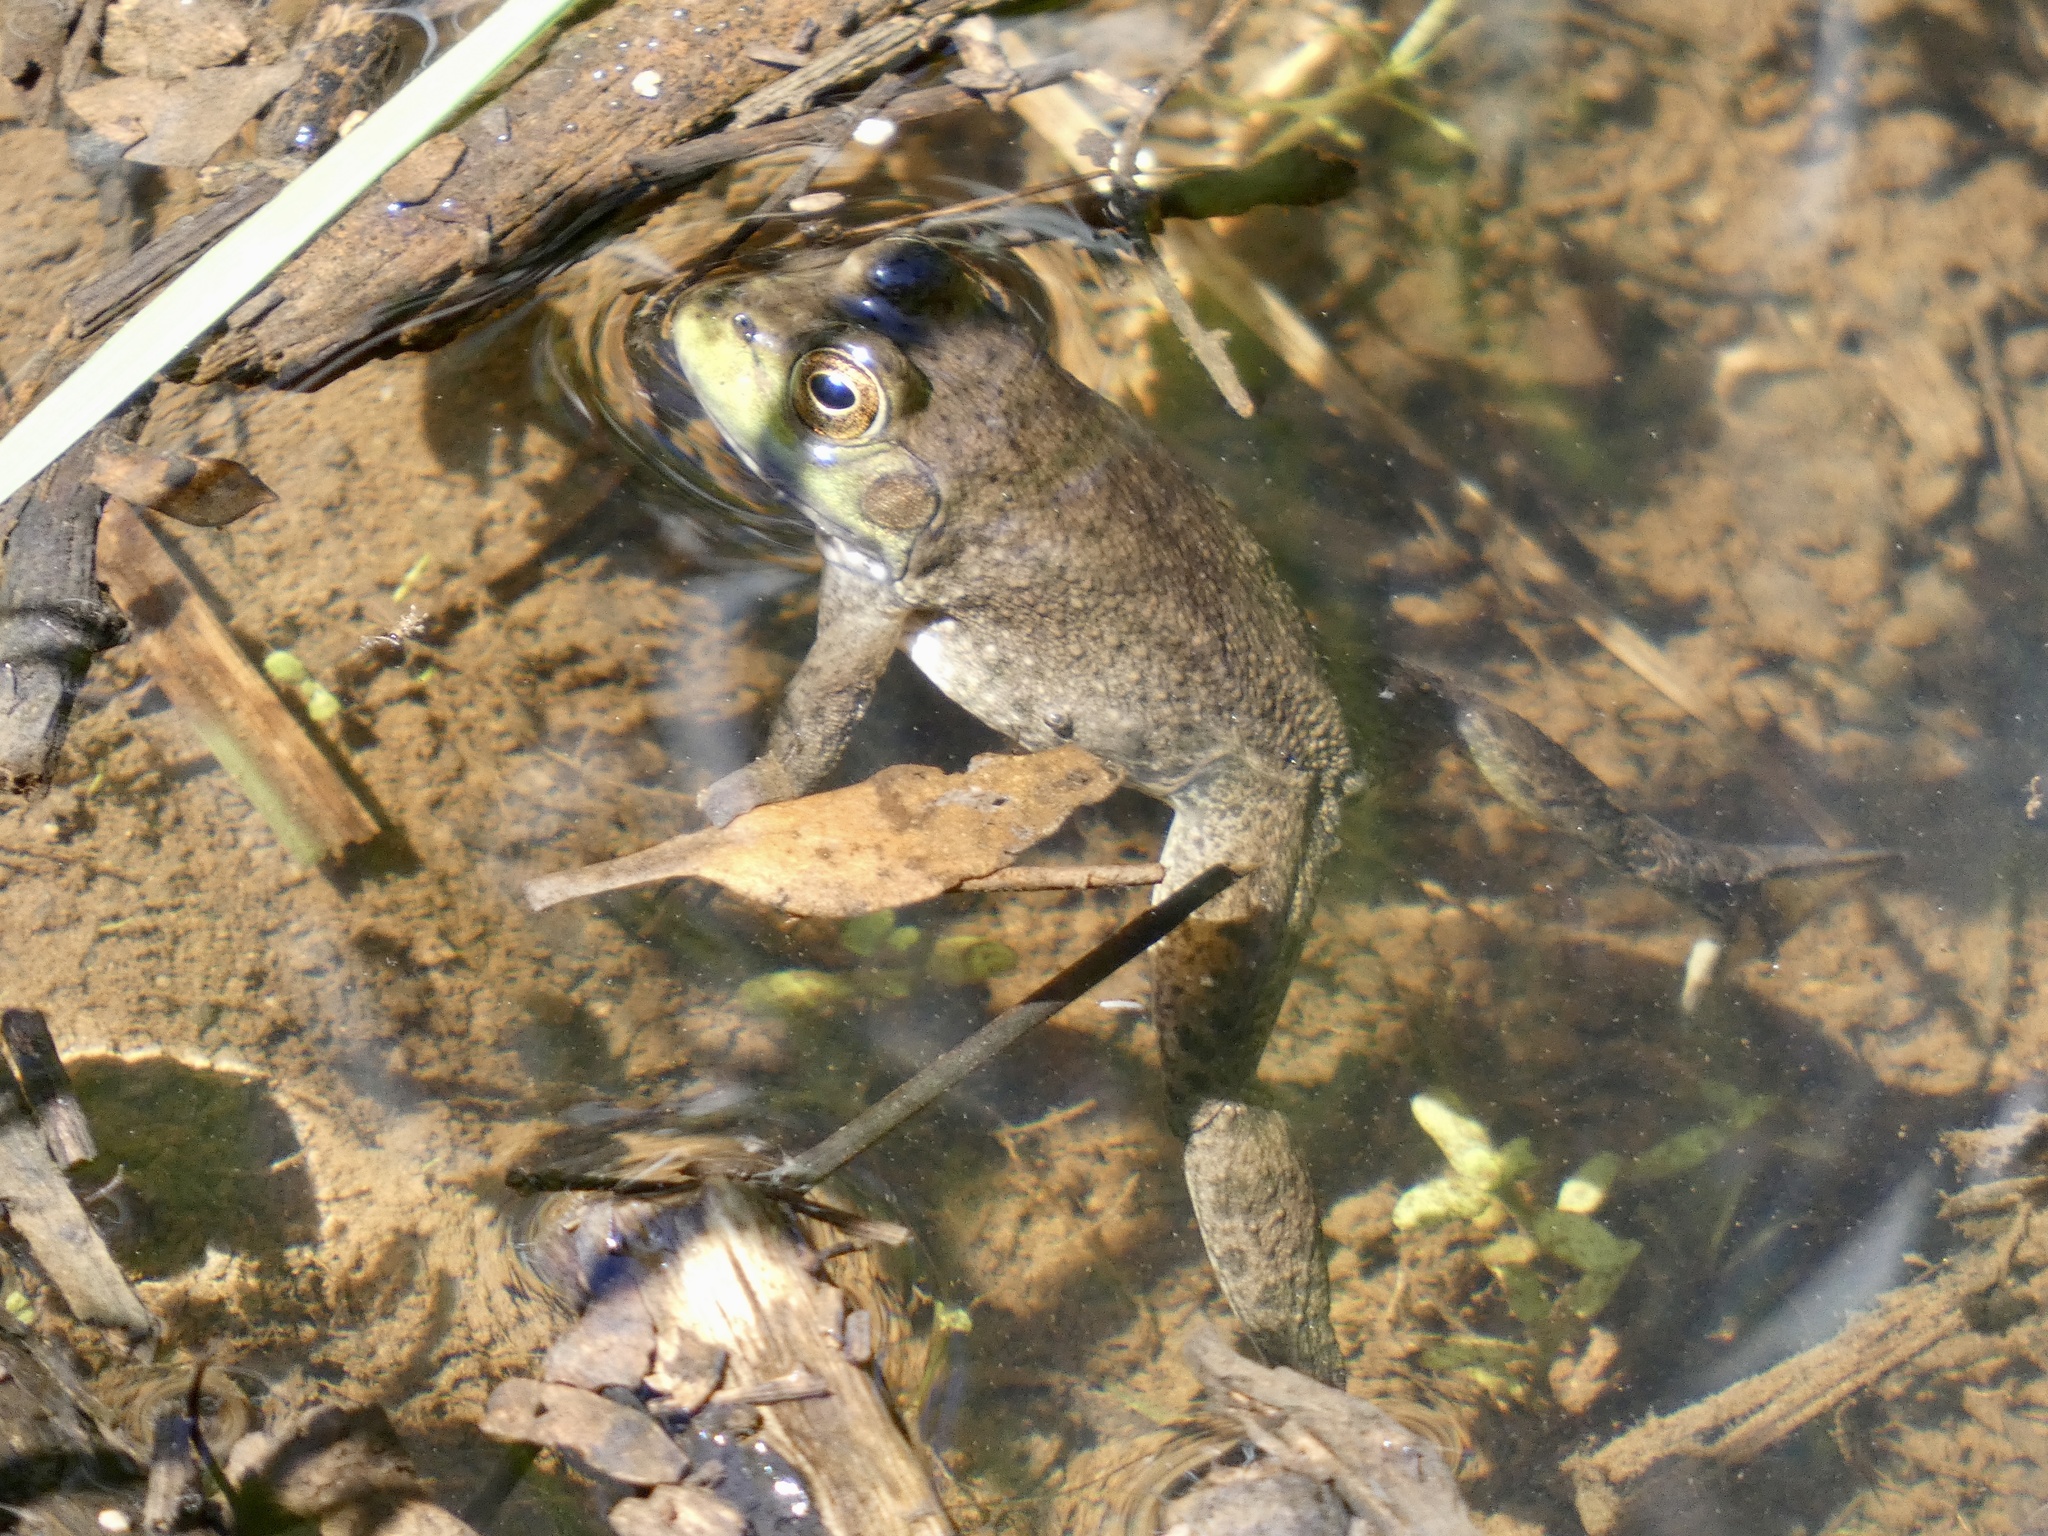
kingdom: Animalia
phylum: Chordata
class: Amphibia
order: Anura
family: Ranidae
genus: Lithobates
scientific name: Lithobates catesbeianus
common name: American bullfrog
